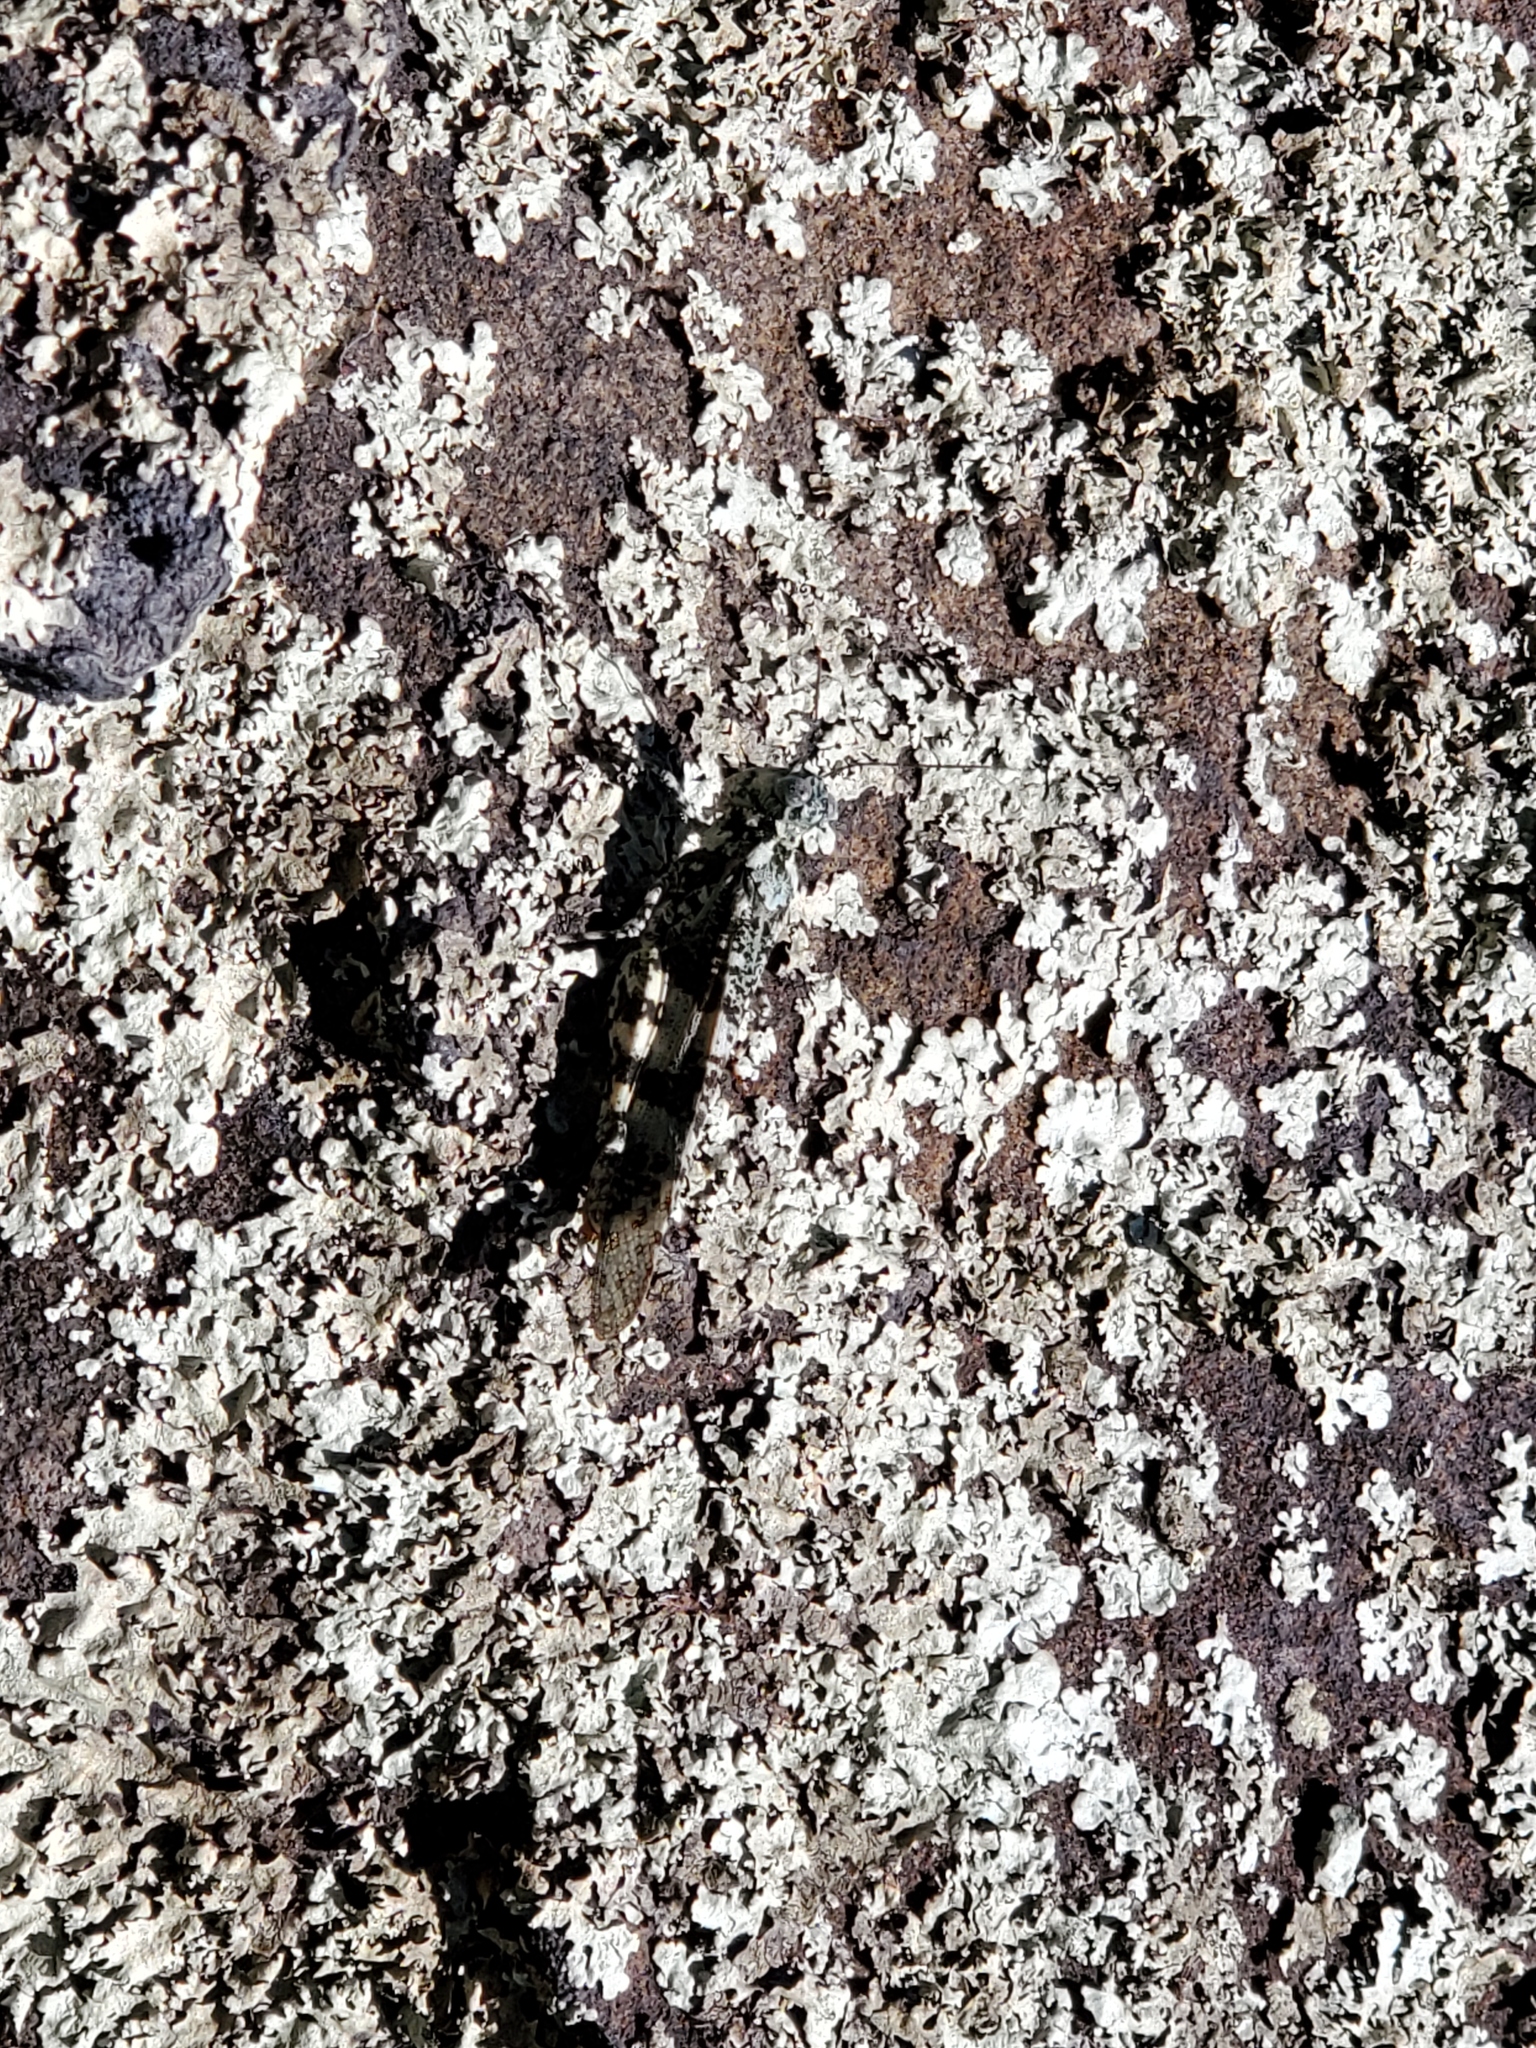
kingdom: Animalia
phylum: Arthropoda
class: Insecta
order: Orthoptera
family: Acrididae
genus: Trimerotropis
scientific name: Trimerotropis saxatilis
